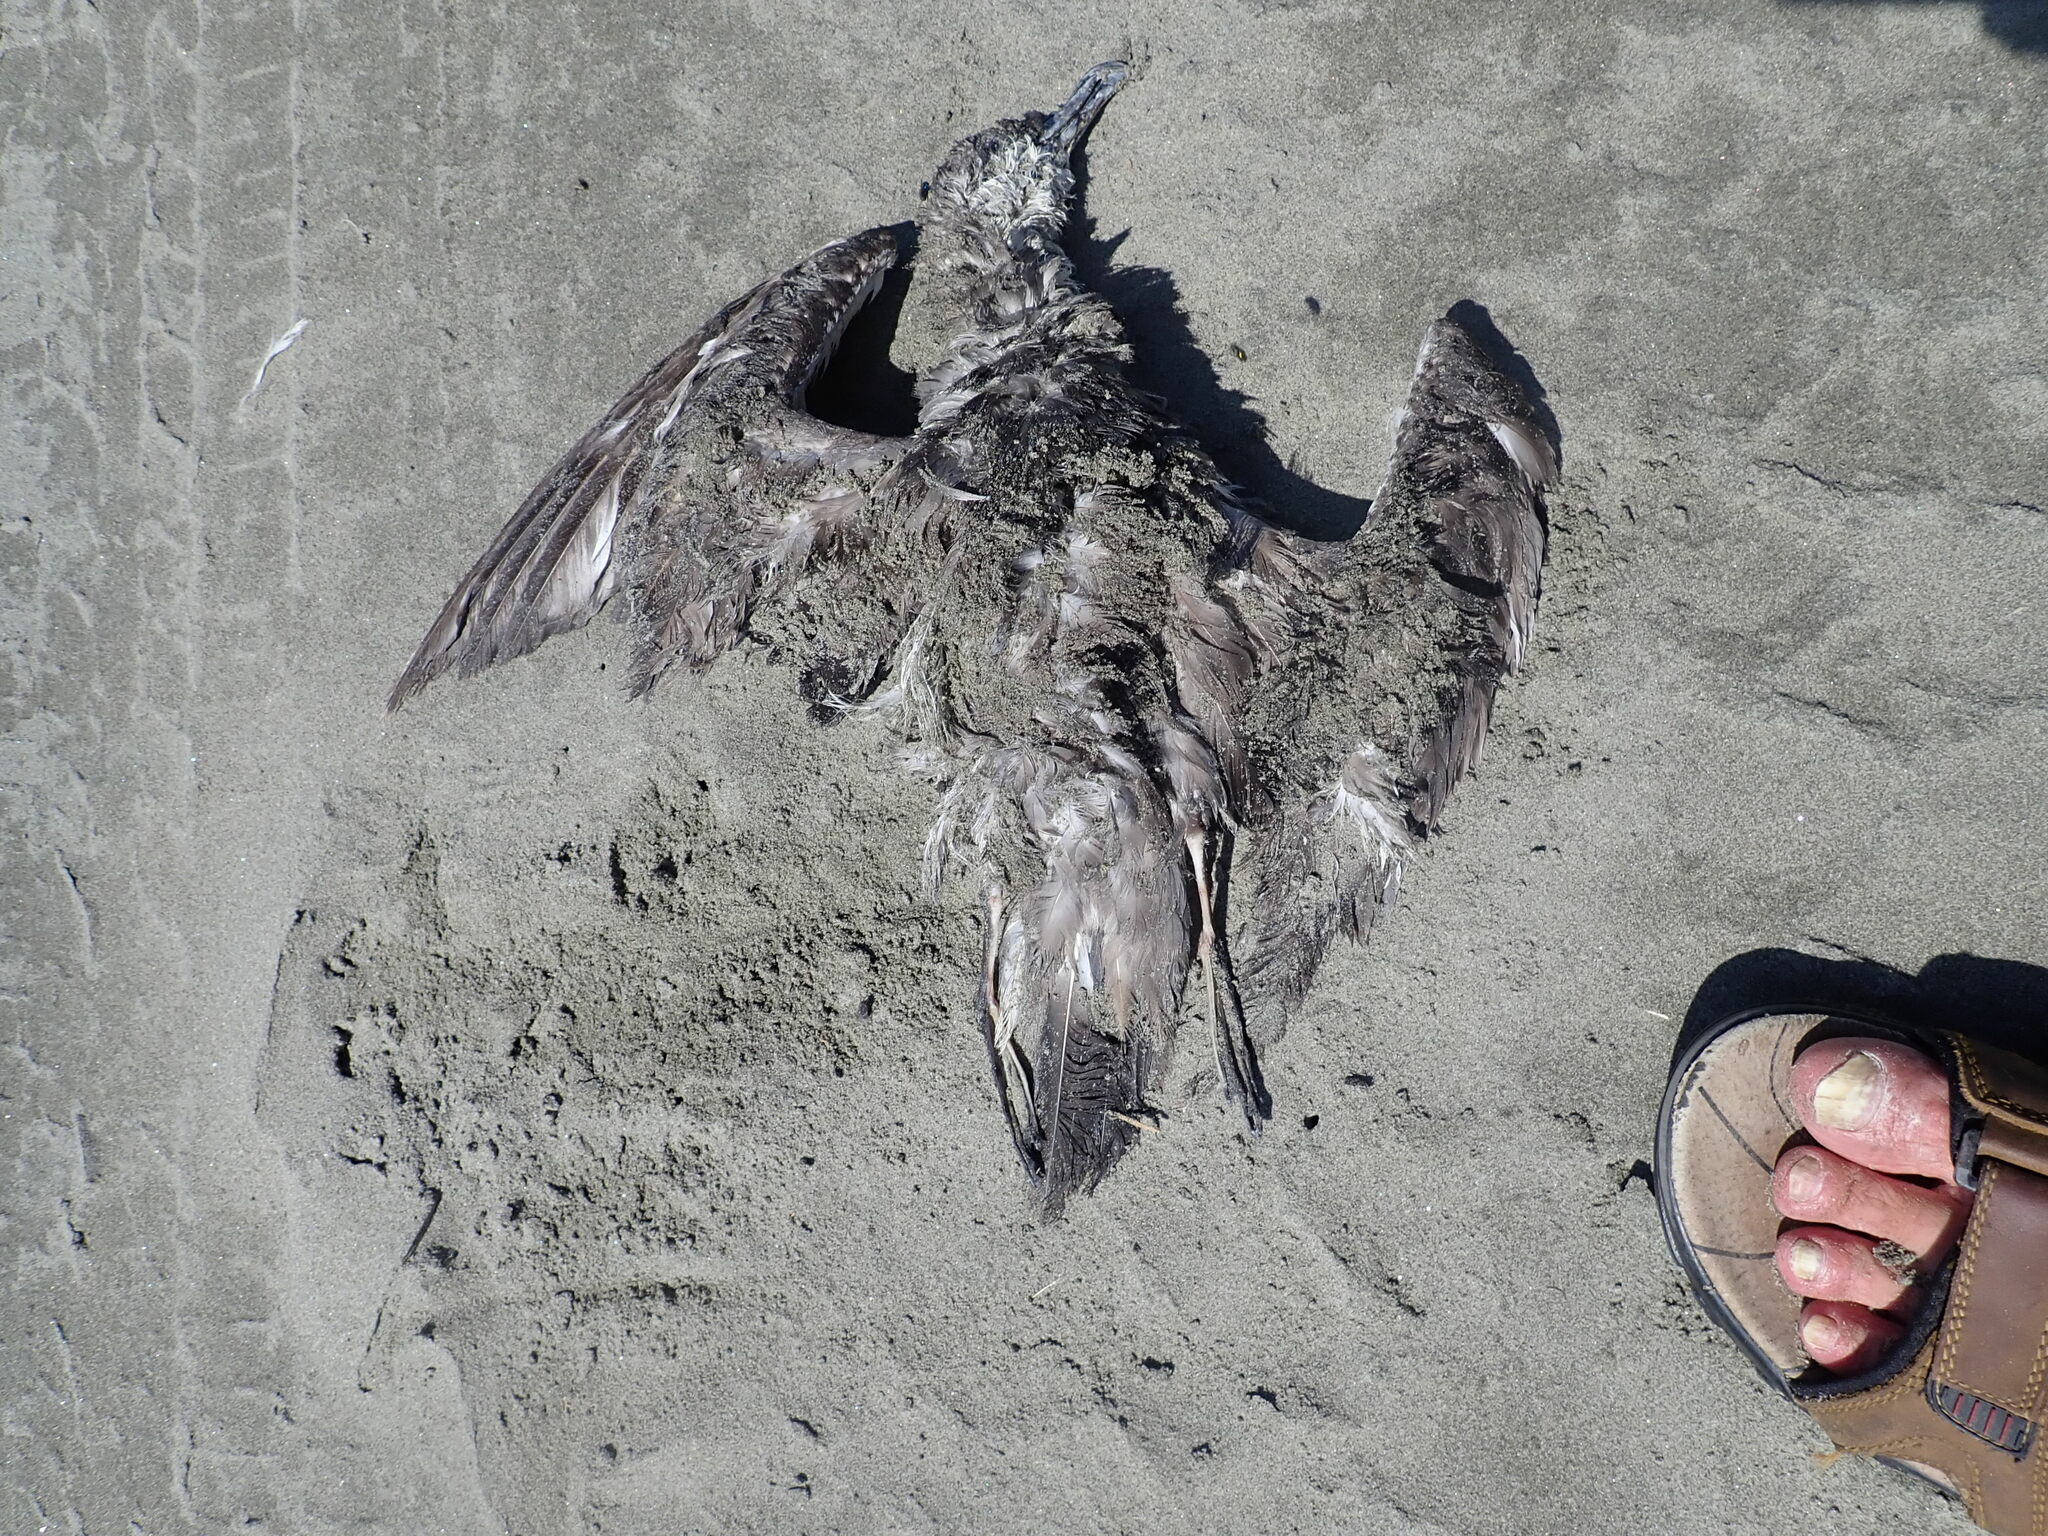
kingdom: Animalia
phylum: Chordata
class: Aves
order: Procellariiformes
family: Procellariidae
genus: Puffinus
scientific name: Puffinus bulleri
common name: Buller's shearwater
